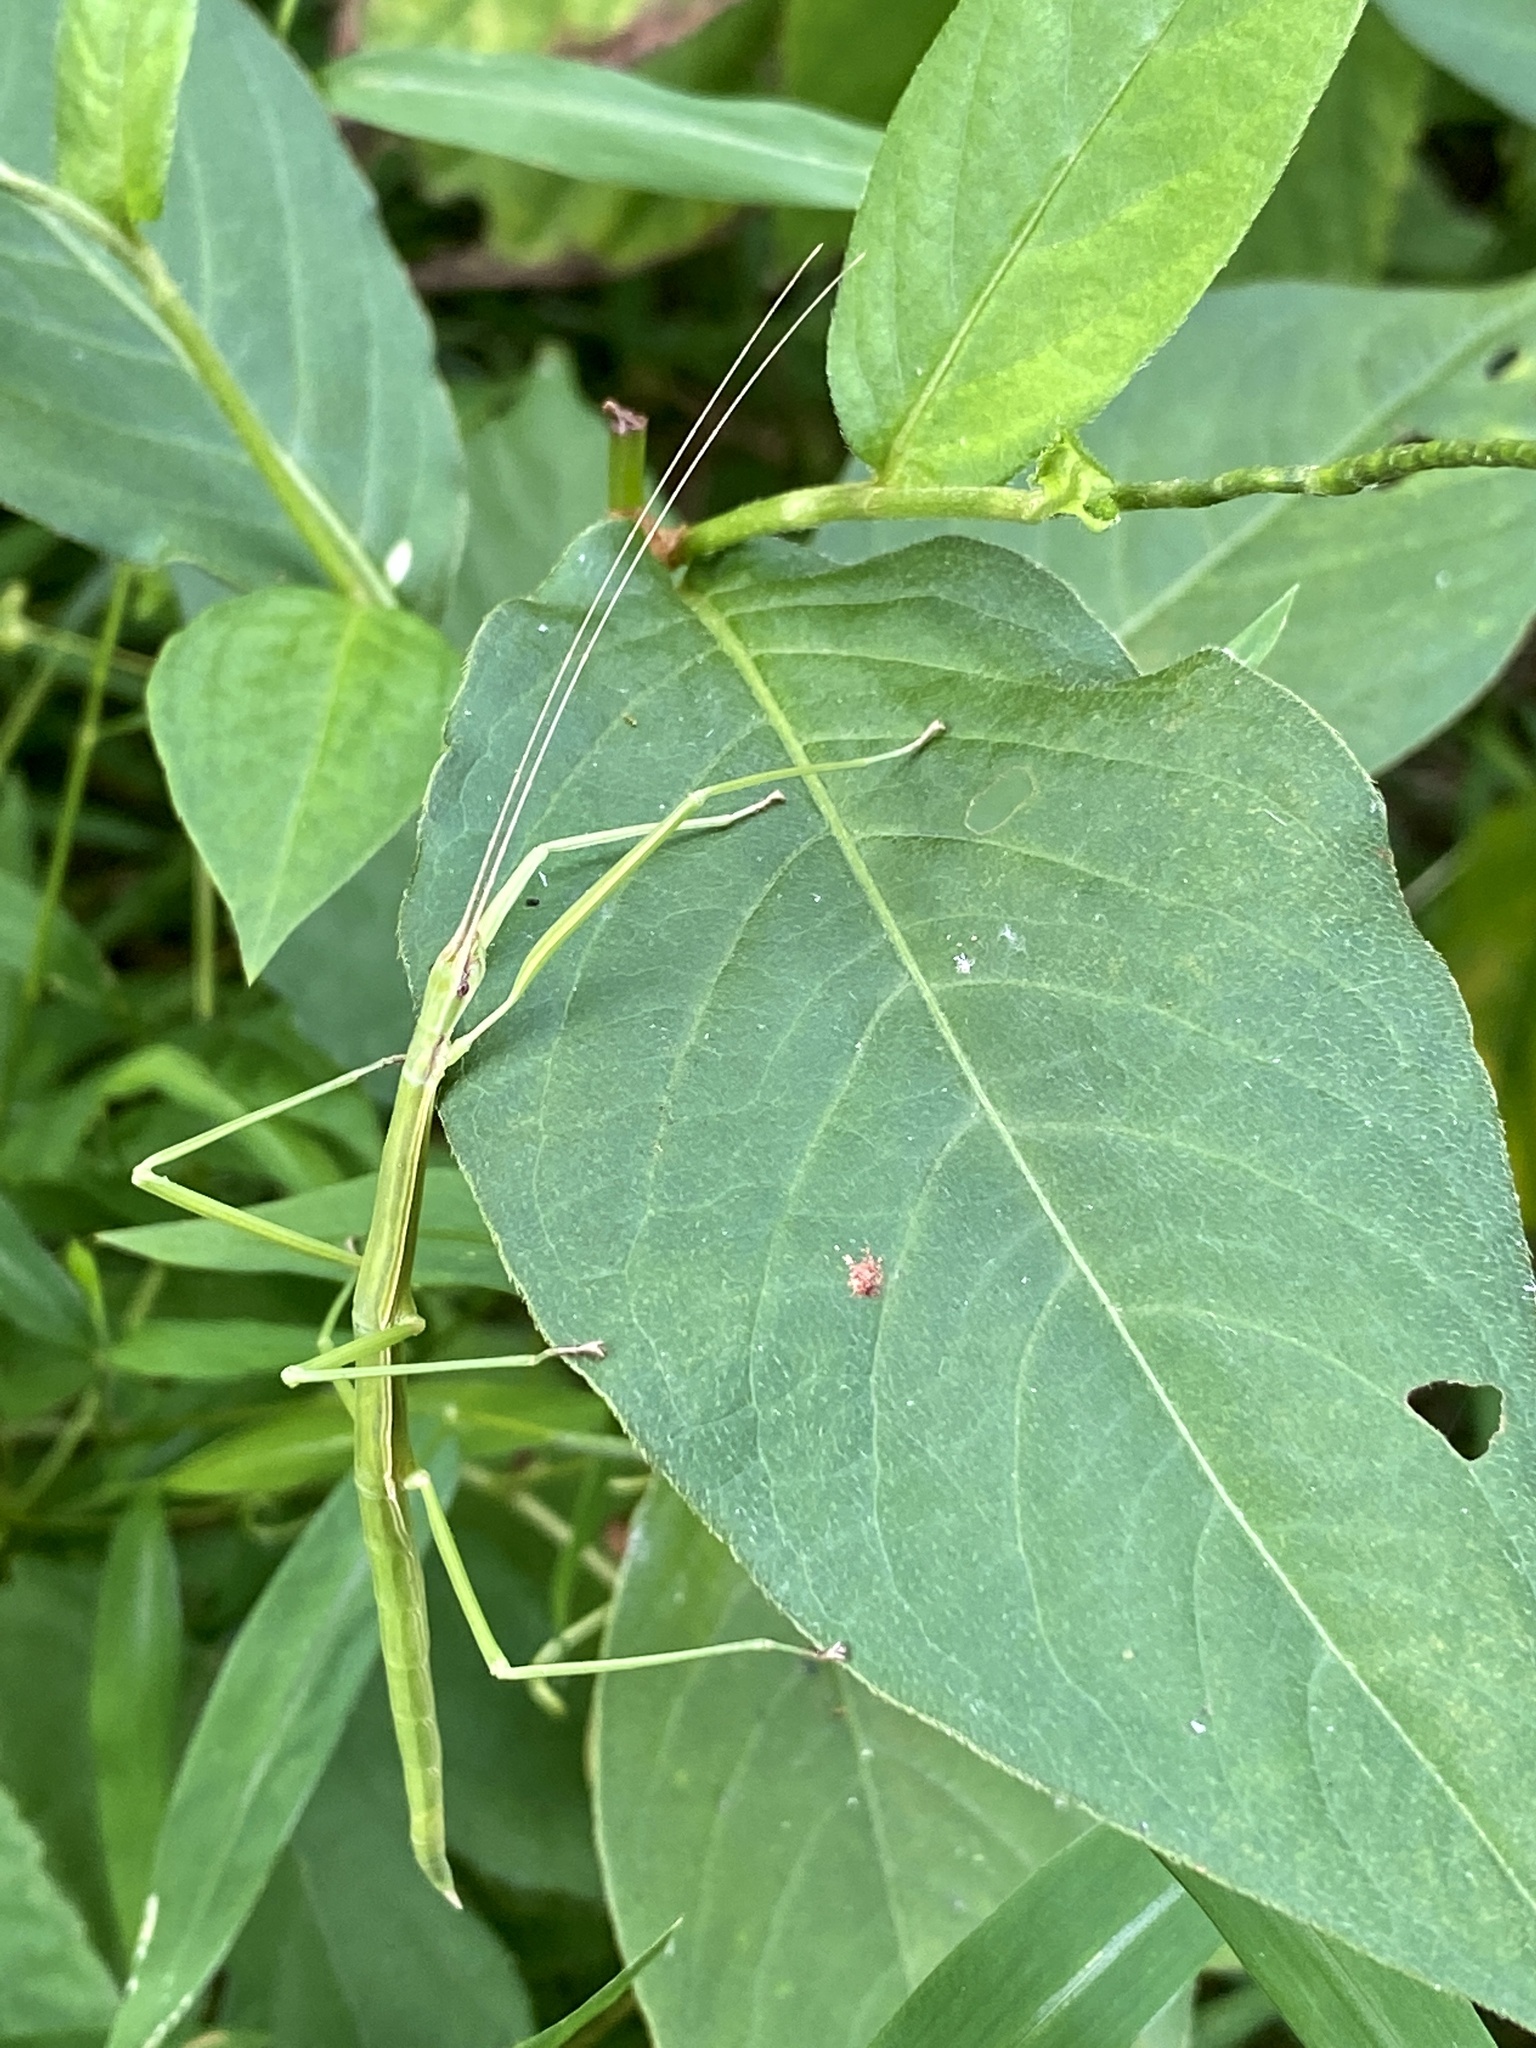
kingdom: Animalia
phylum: Arthropoda
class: Insecta
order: Phasmida
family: Diapheromeridae
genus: Manomera
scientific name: Manomera blatchleyi
